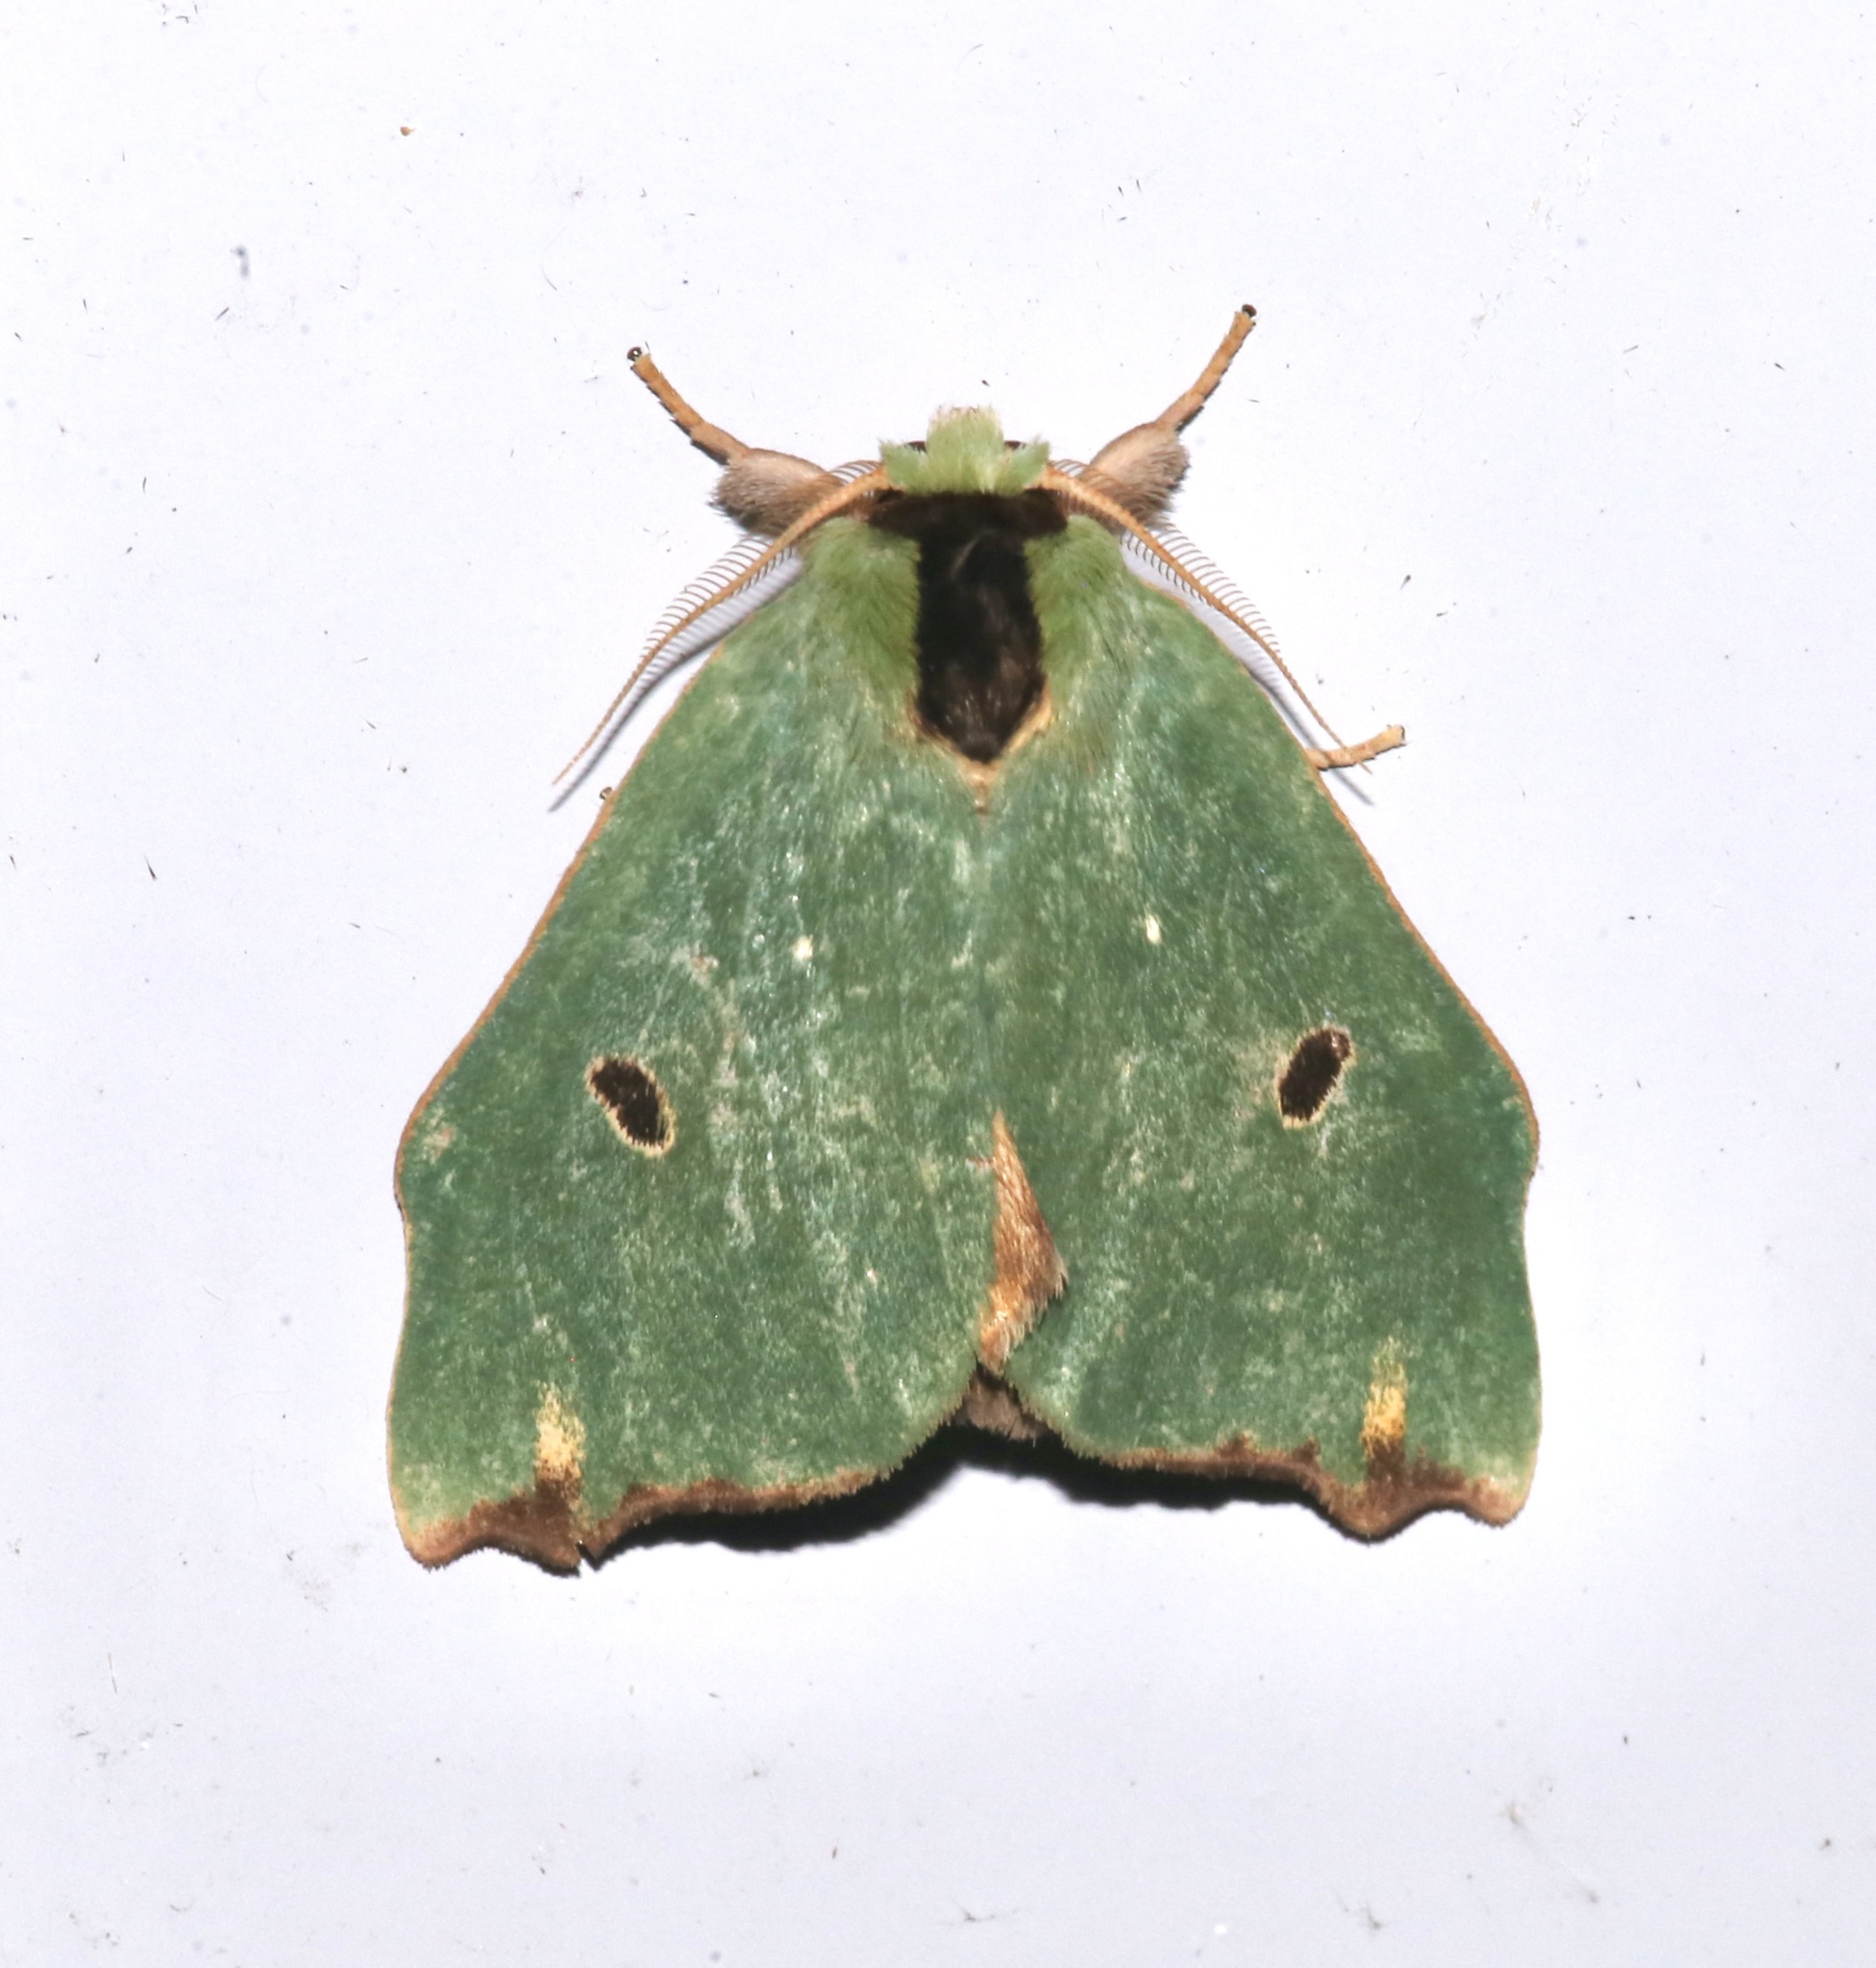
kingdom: Animalia
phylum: Arthropoda
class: Insecta
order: Lepidoptera
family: Notodontidae
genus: Rosema
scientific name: Rosema deolis
